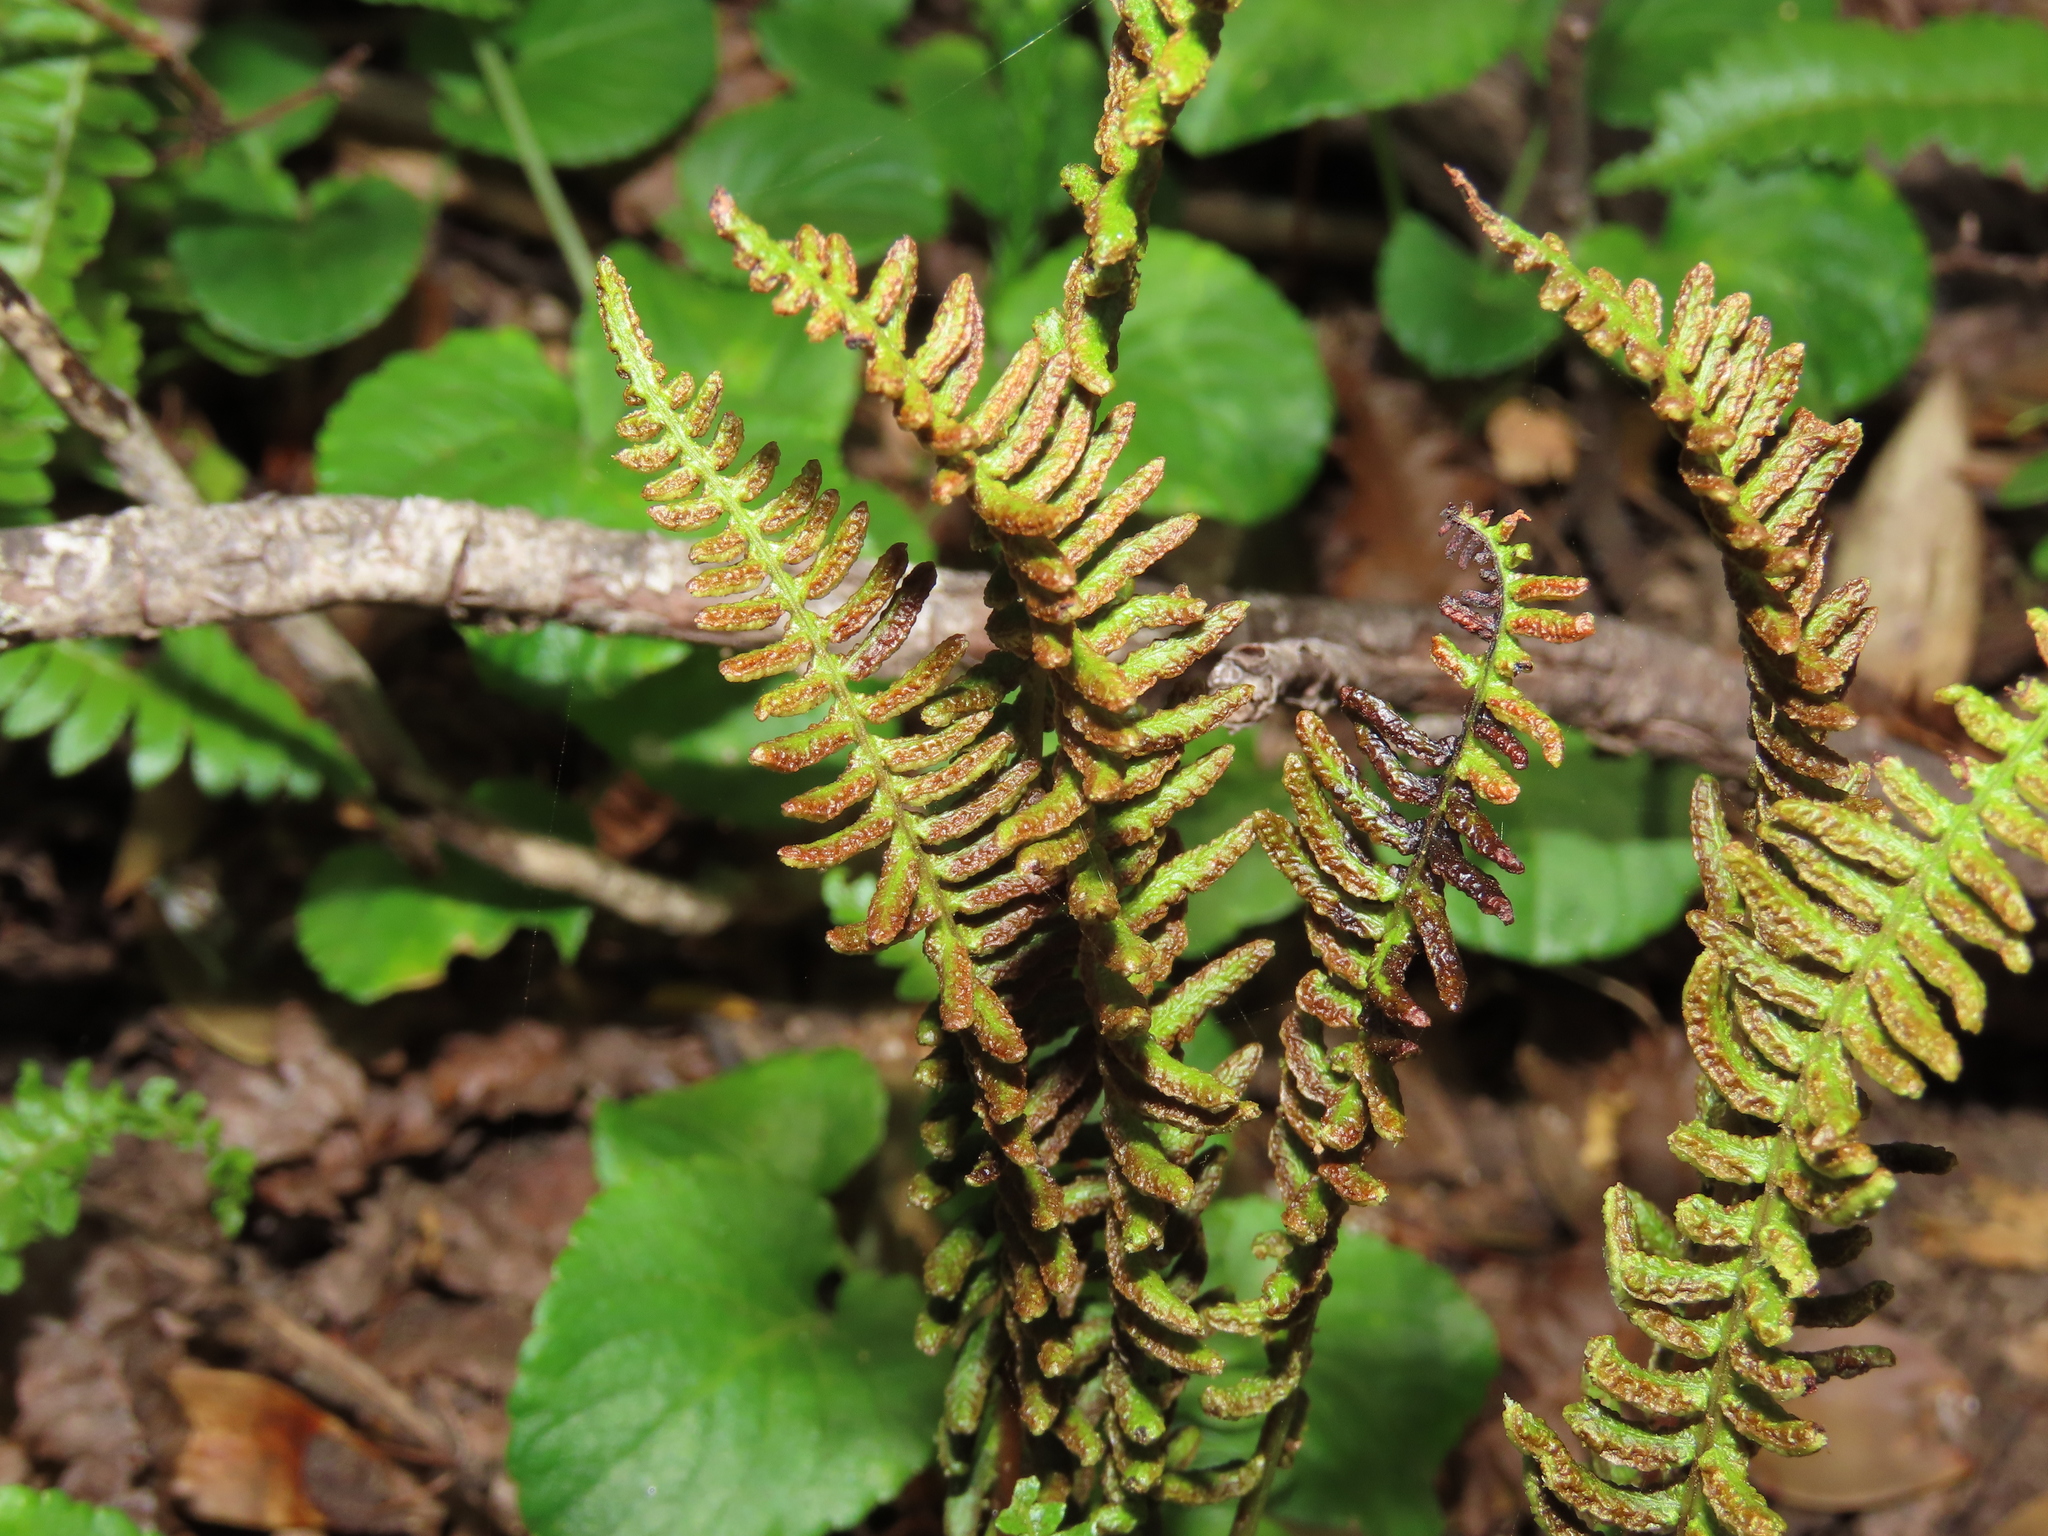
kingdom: Plantae
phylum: Tracheophyta
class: Polypodiopsida
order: Polypodiales
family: Blechnaceae
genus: Austroblechnum
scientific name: Austroblechnum microphyllum
